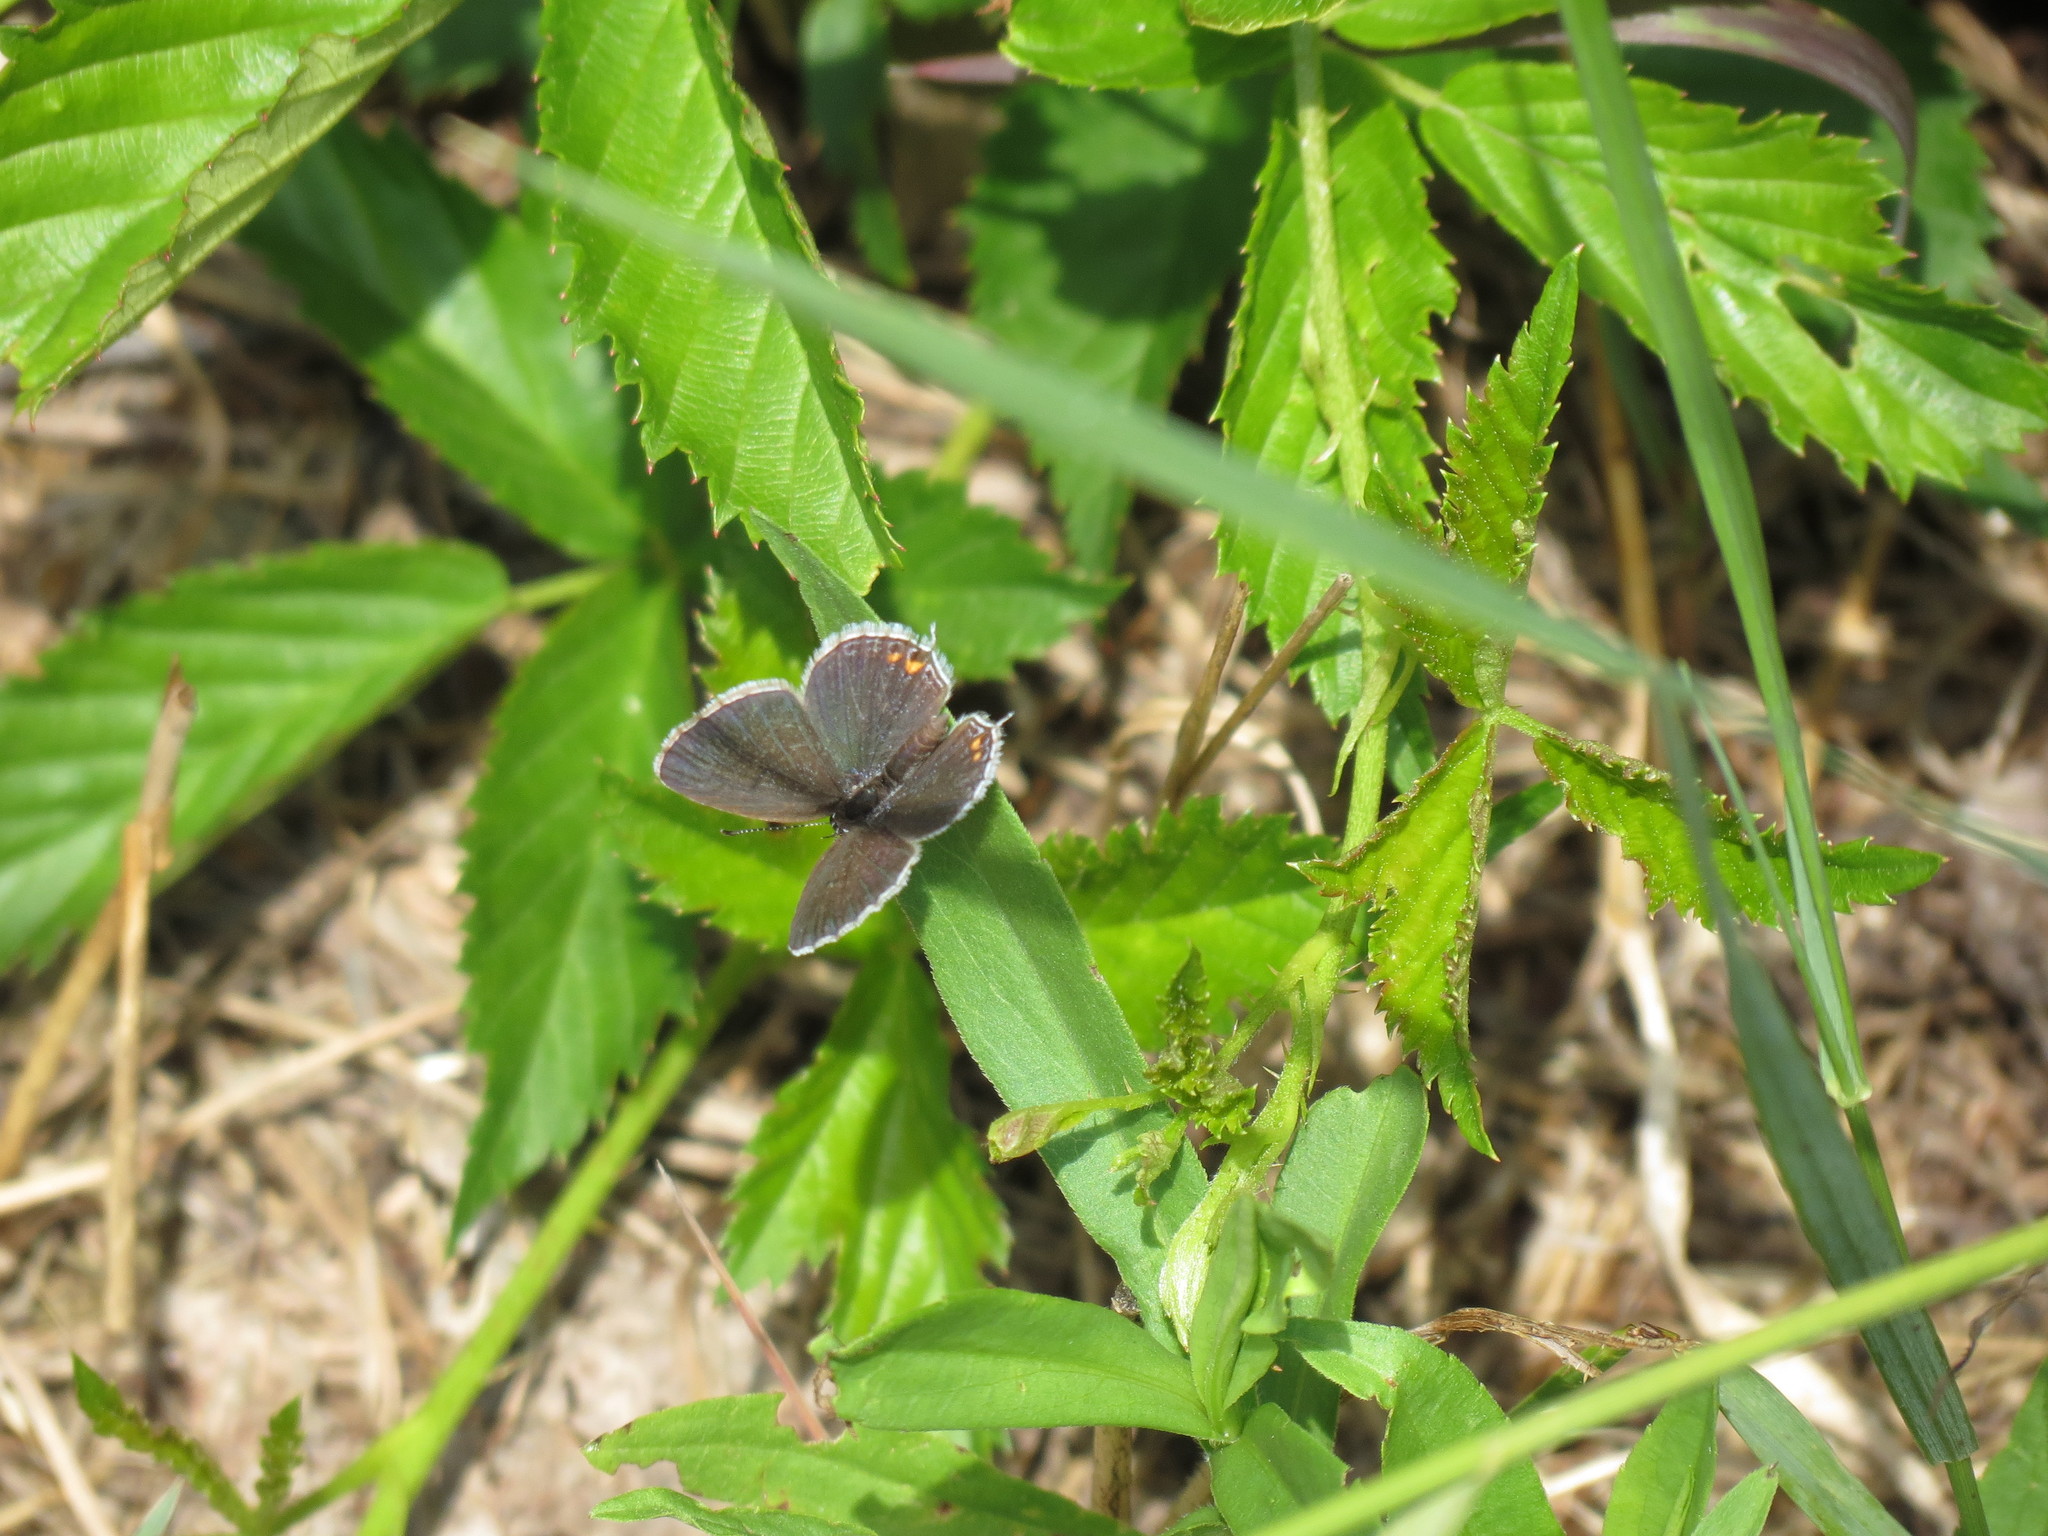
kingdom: Animalia
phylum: Arthropoda
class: Insecta
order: Lepidoptera
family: Lycaenidae
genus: Elkalyce
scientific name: Elkalyce comyntas
